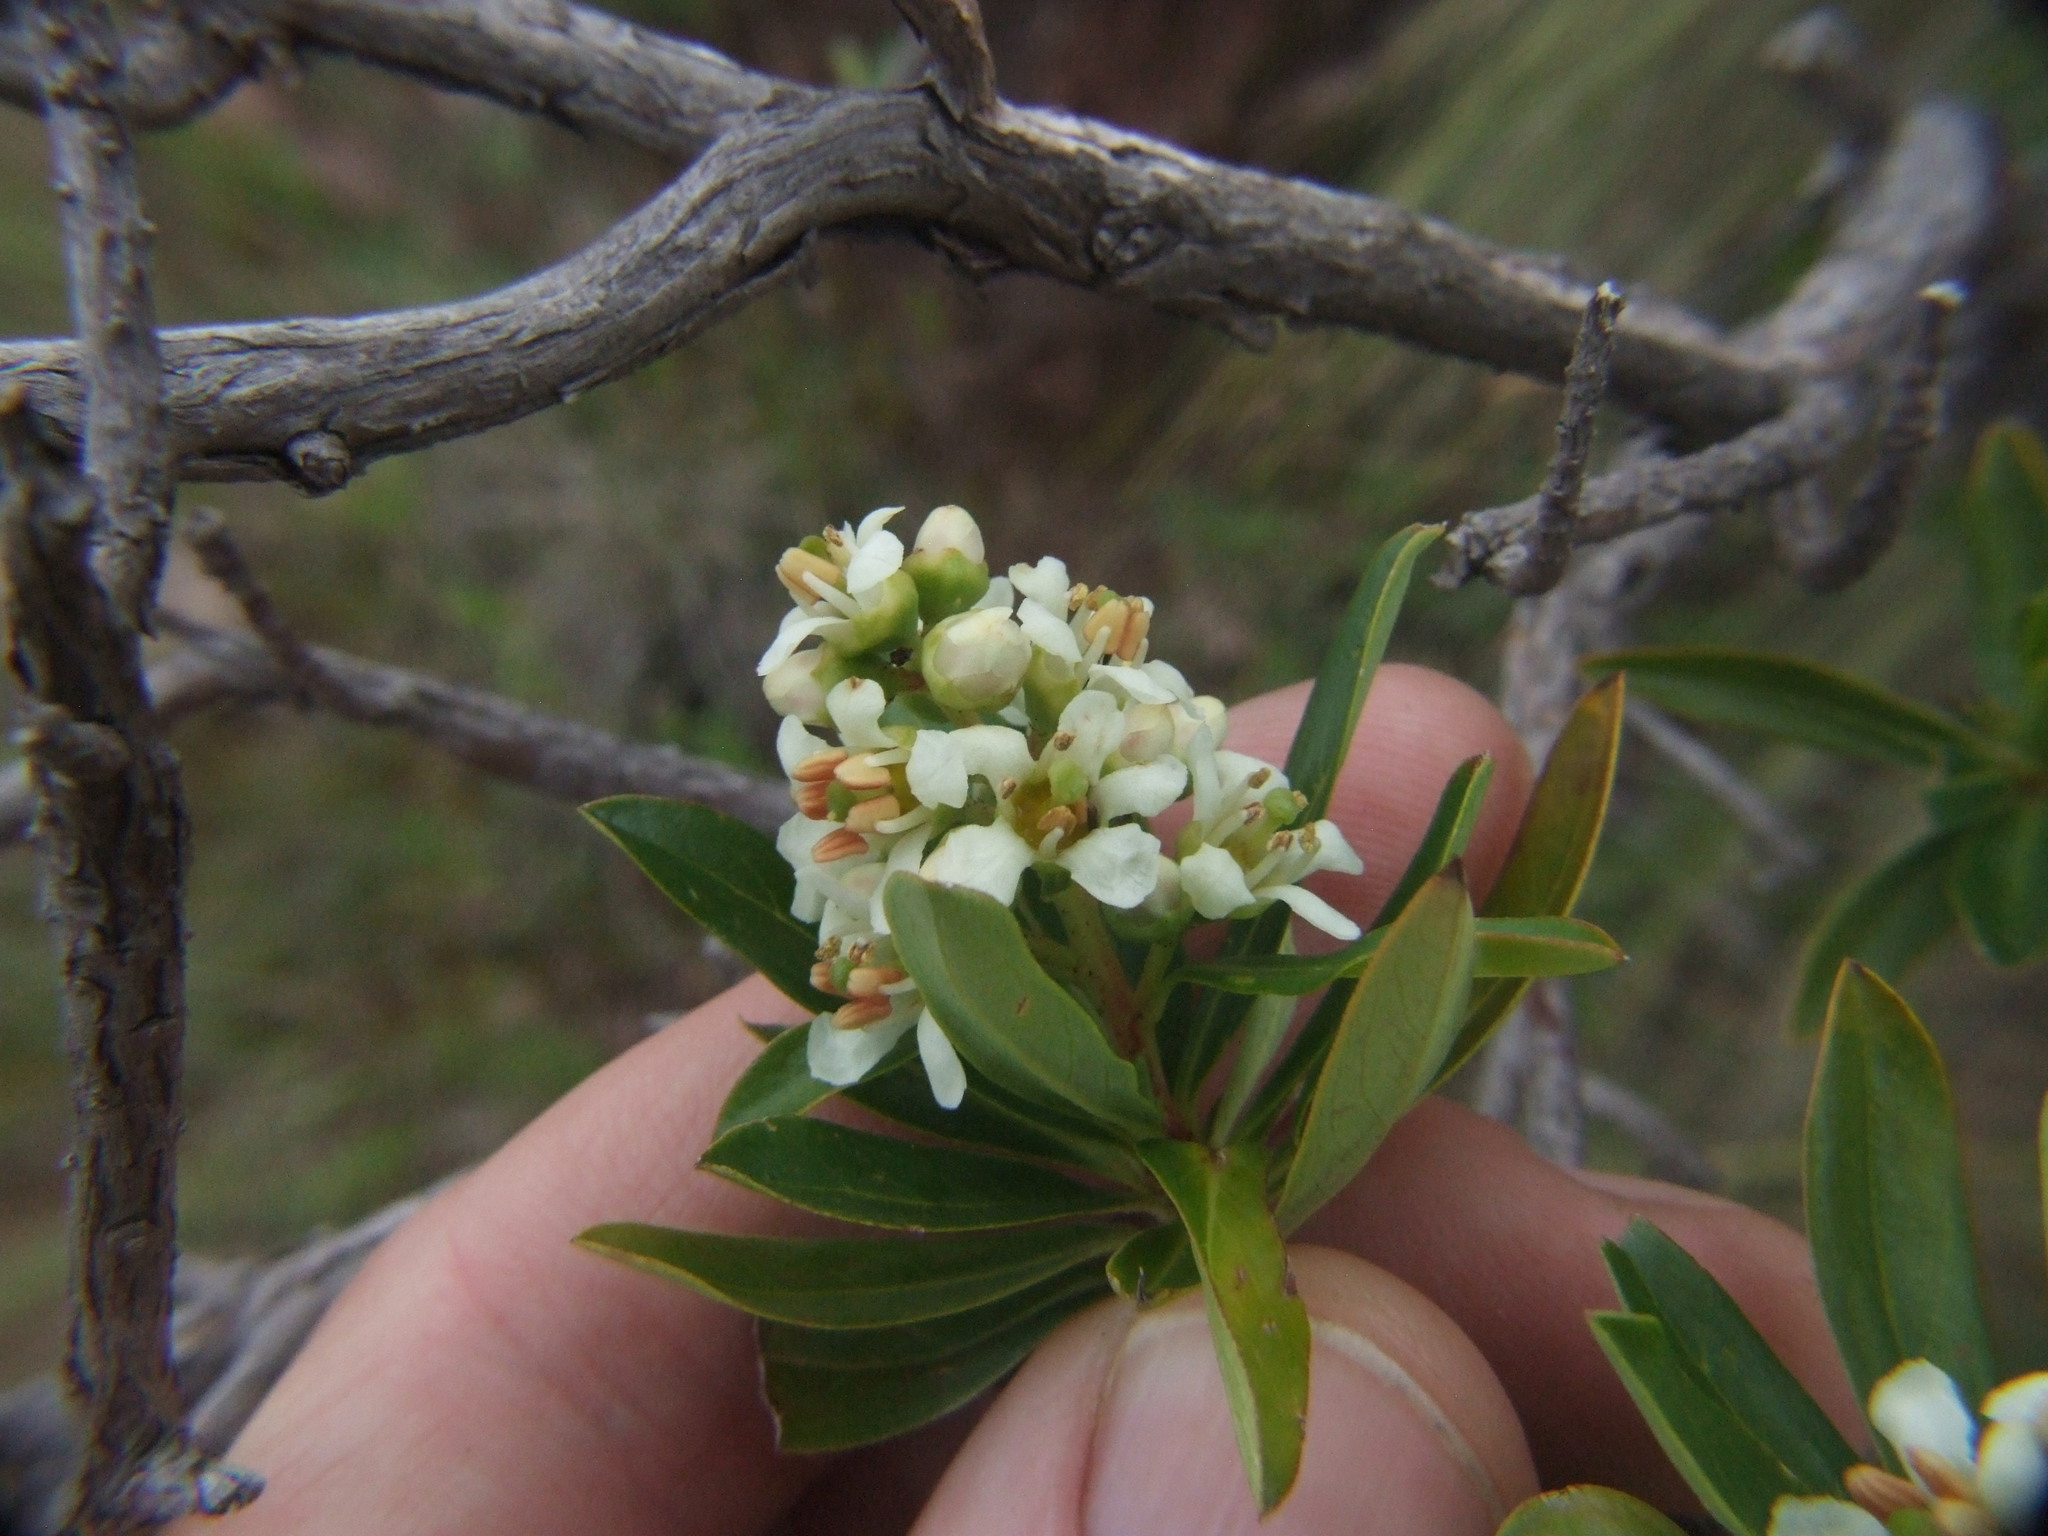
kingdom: Plantae
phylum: Tracheophyta
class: Magnoliopsida
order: Escalloniales
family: Escalloniaceae
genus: Escallonia
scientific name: Escallonia resinosa
